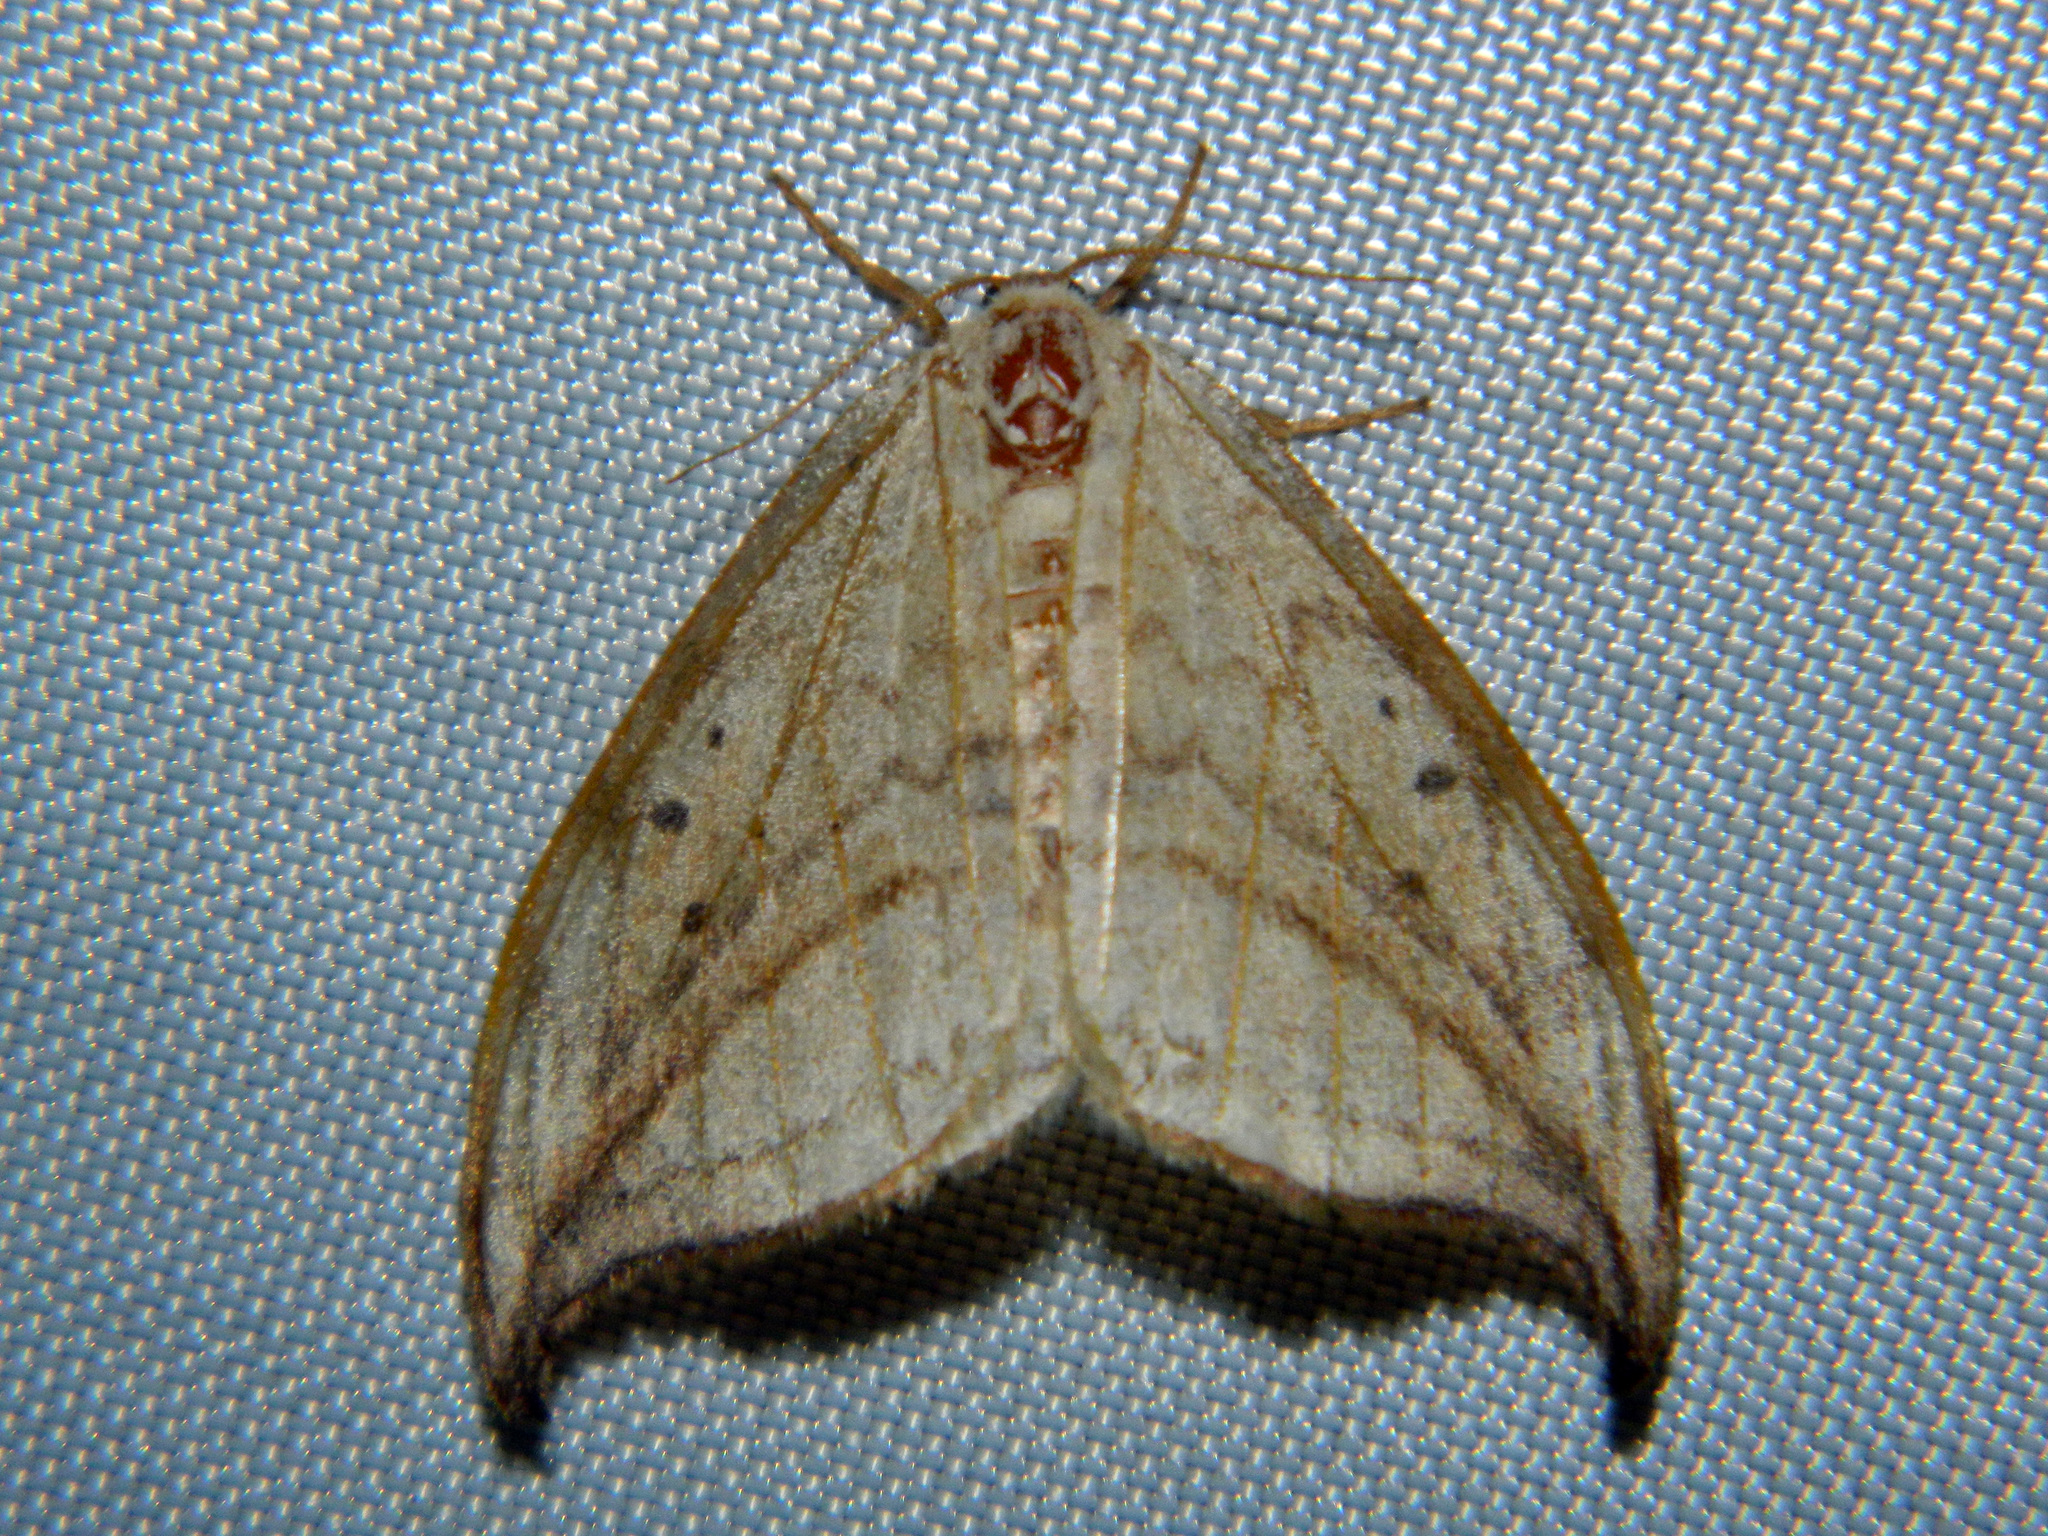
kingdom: Animalia
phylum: Arthropoda
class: Insecta
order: Lepidoptera
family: Drepanidae
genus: Drepana
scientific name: Drepana arcuata
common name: Arched hooktip moth
